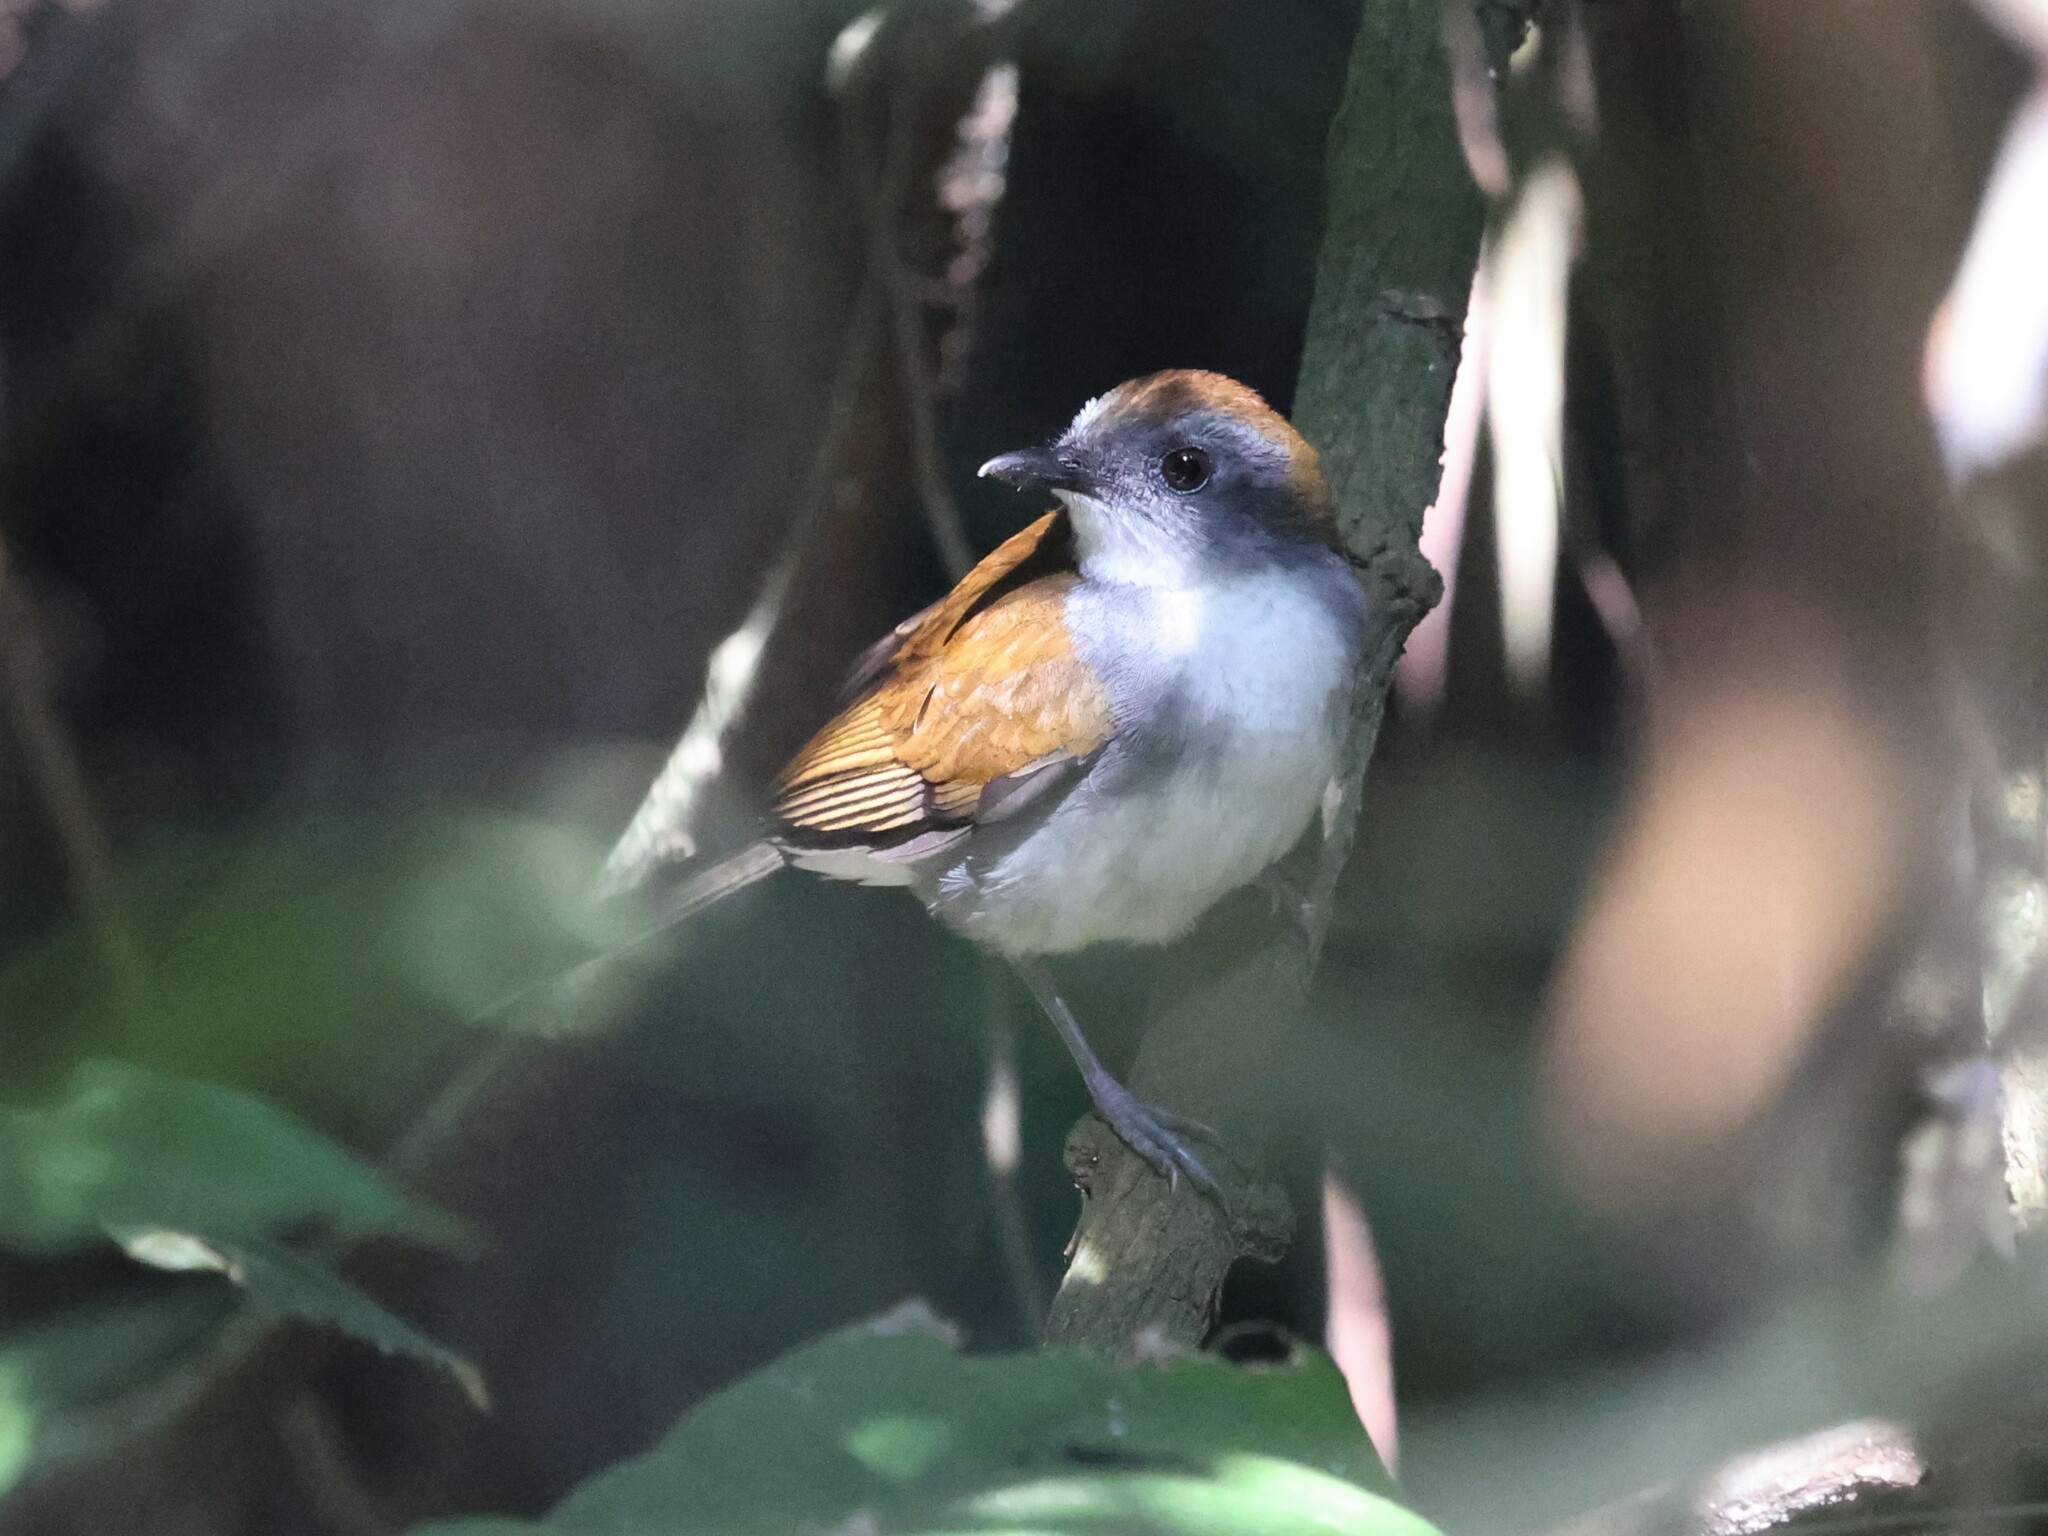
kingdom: Animalia
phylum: Chordata
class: Aves
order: Passeriformes
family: Turdidae
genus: Alethe
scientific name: Alethe castanea
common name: Fire-crested alethe
